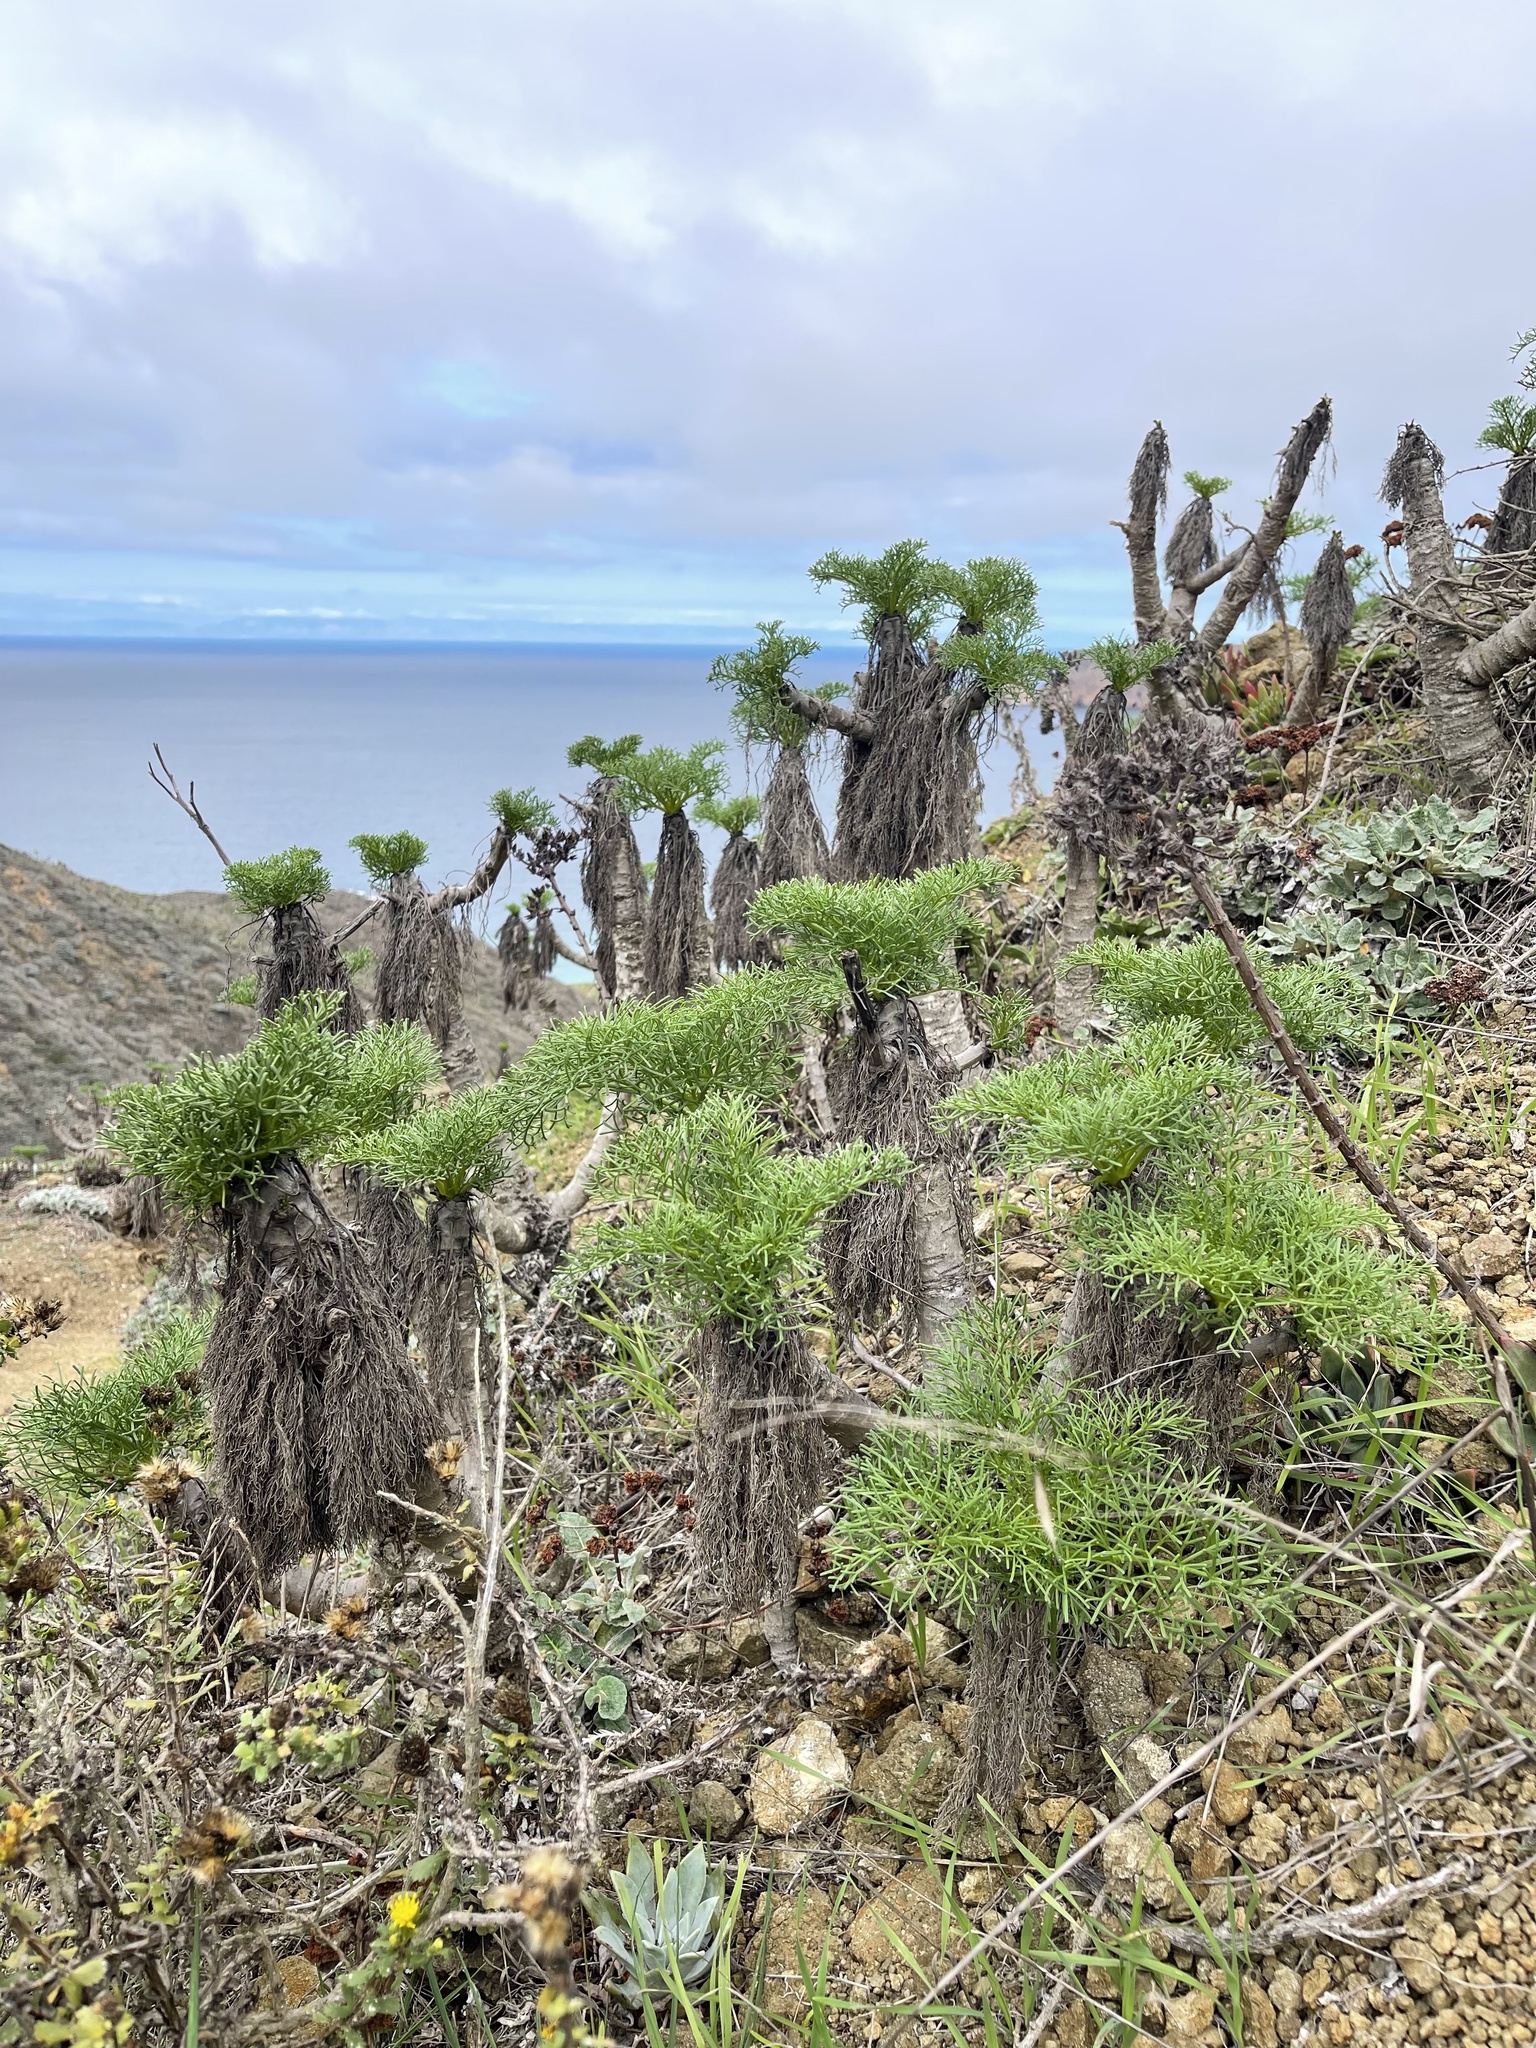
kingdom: Plantae
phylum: Tracheophyta
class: Magnoliopsida
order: Asterales
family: Asteraceae
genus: Coreopsis
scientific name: Coreopsis gigantea
